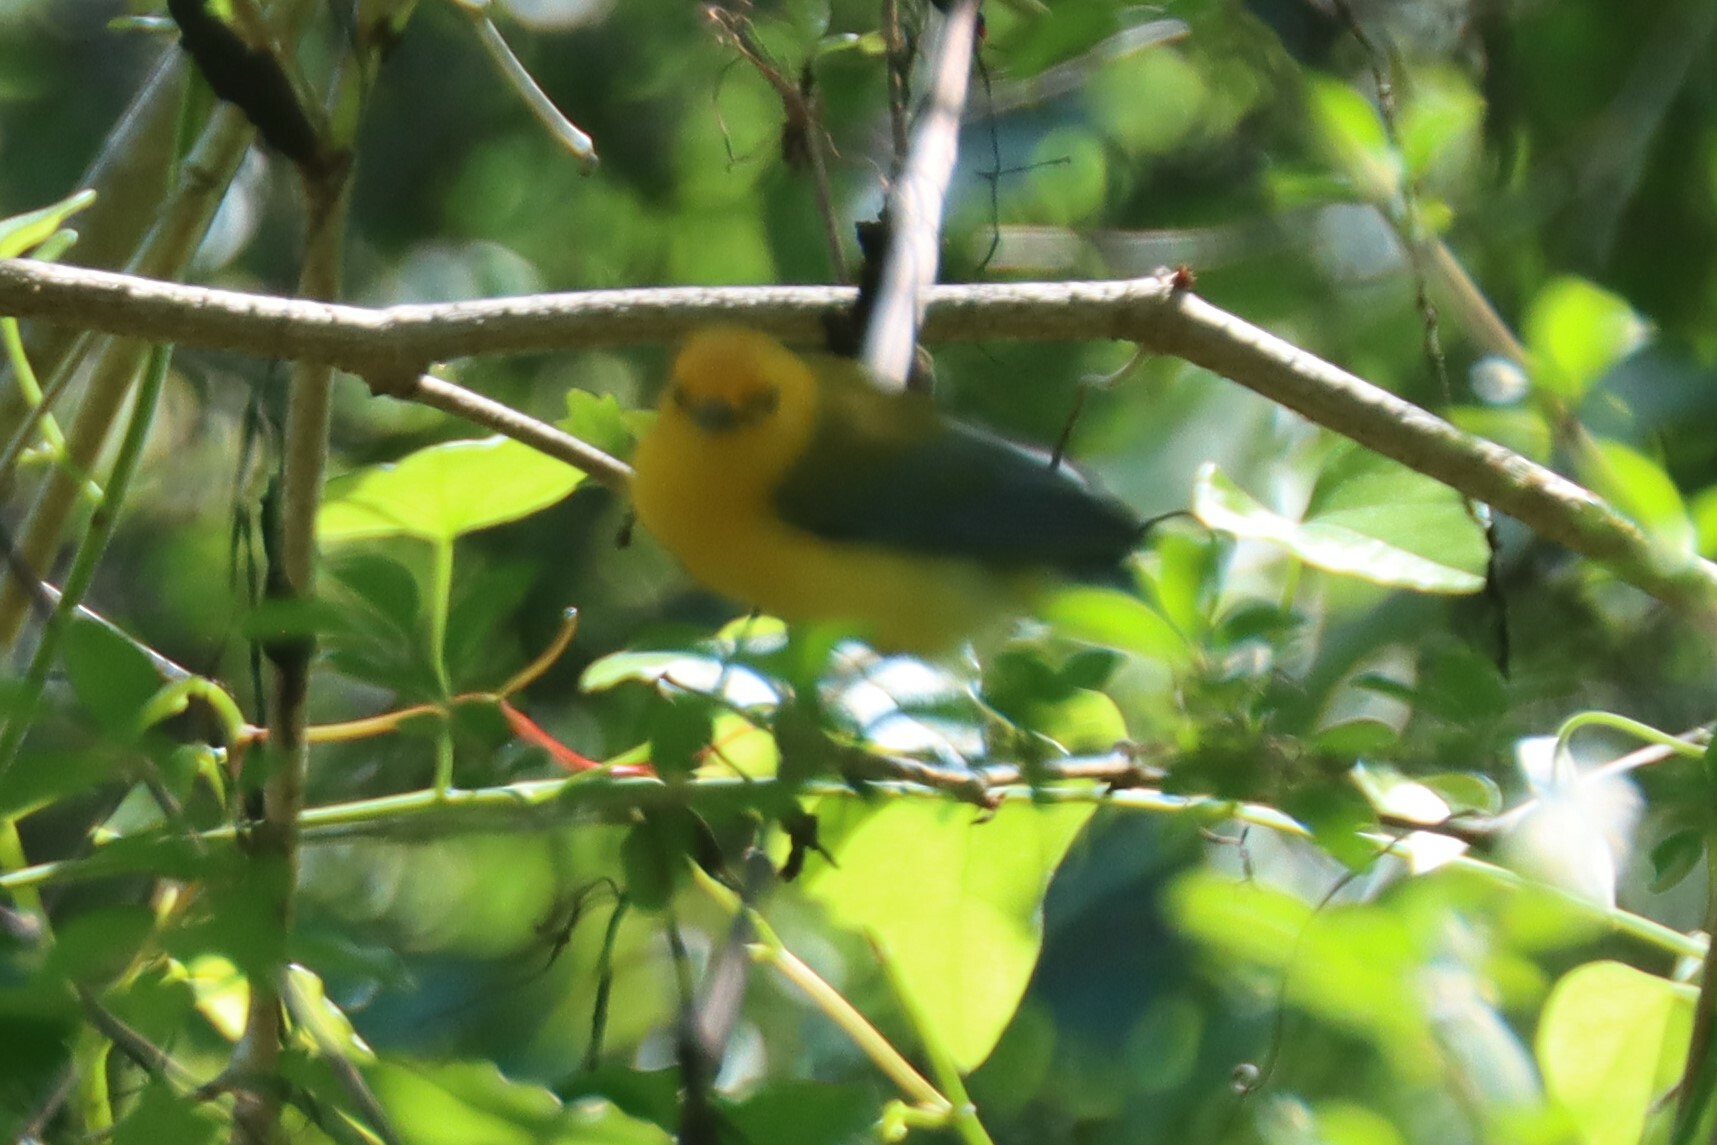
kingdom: Animalia
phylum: Chordata
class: Aves
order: Passeriformes
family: Parulidae
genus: Protonotaria
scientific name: Protonotaria citrea
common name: Prothonotary warbler
